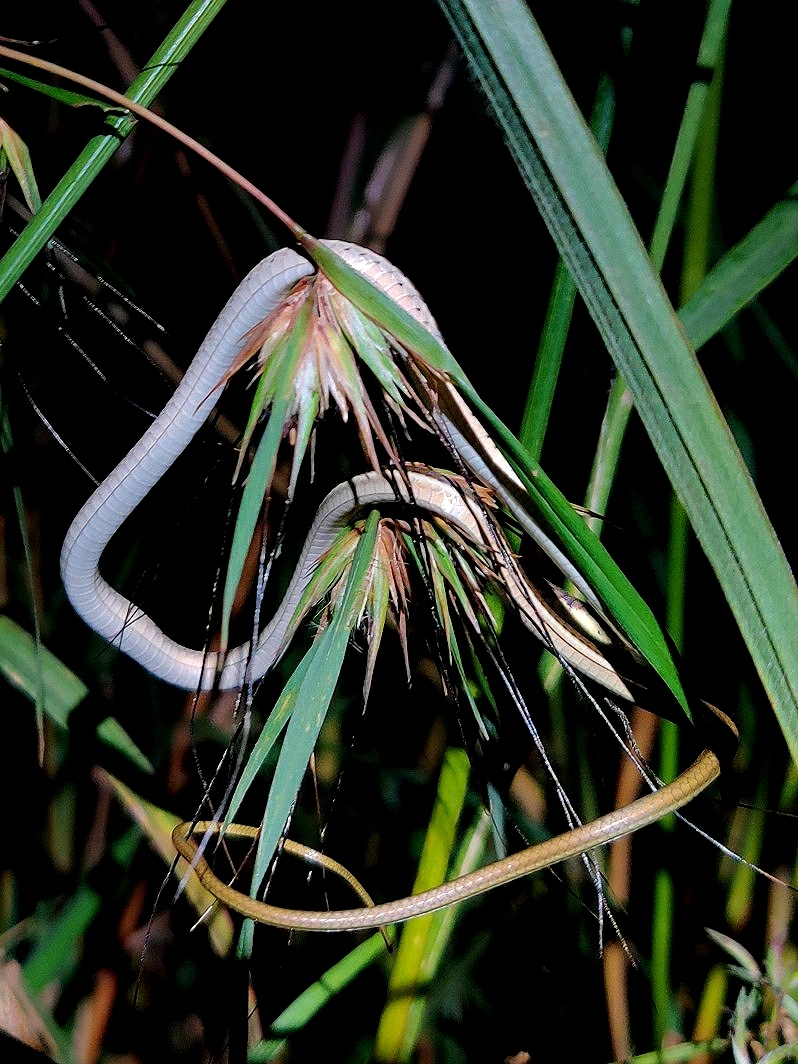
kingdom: Animalia
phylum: Chordata
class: Squamata
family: Colubridae
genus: Dendrelaphis
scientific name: Dendrelaphis tristis
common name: Daudin's bronzeback
